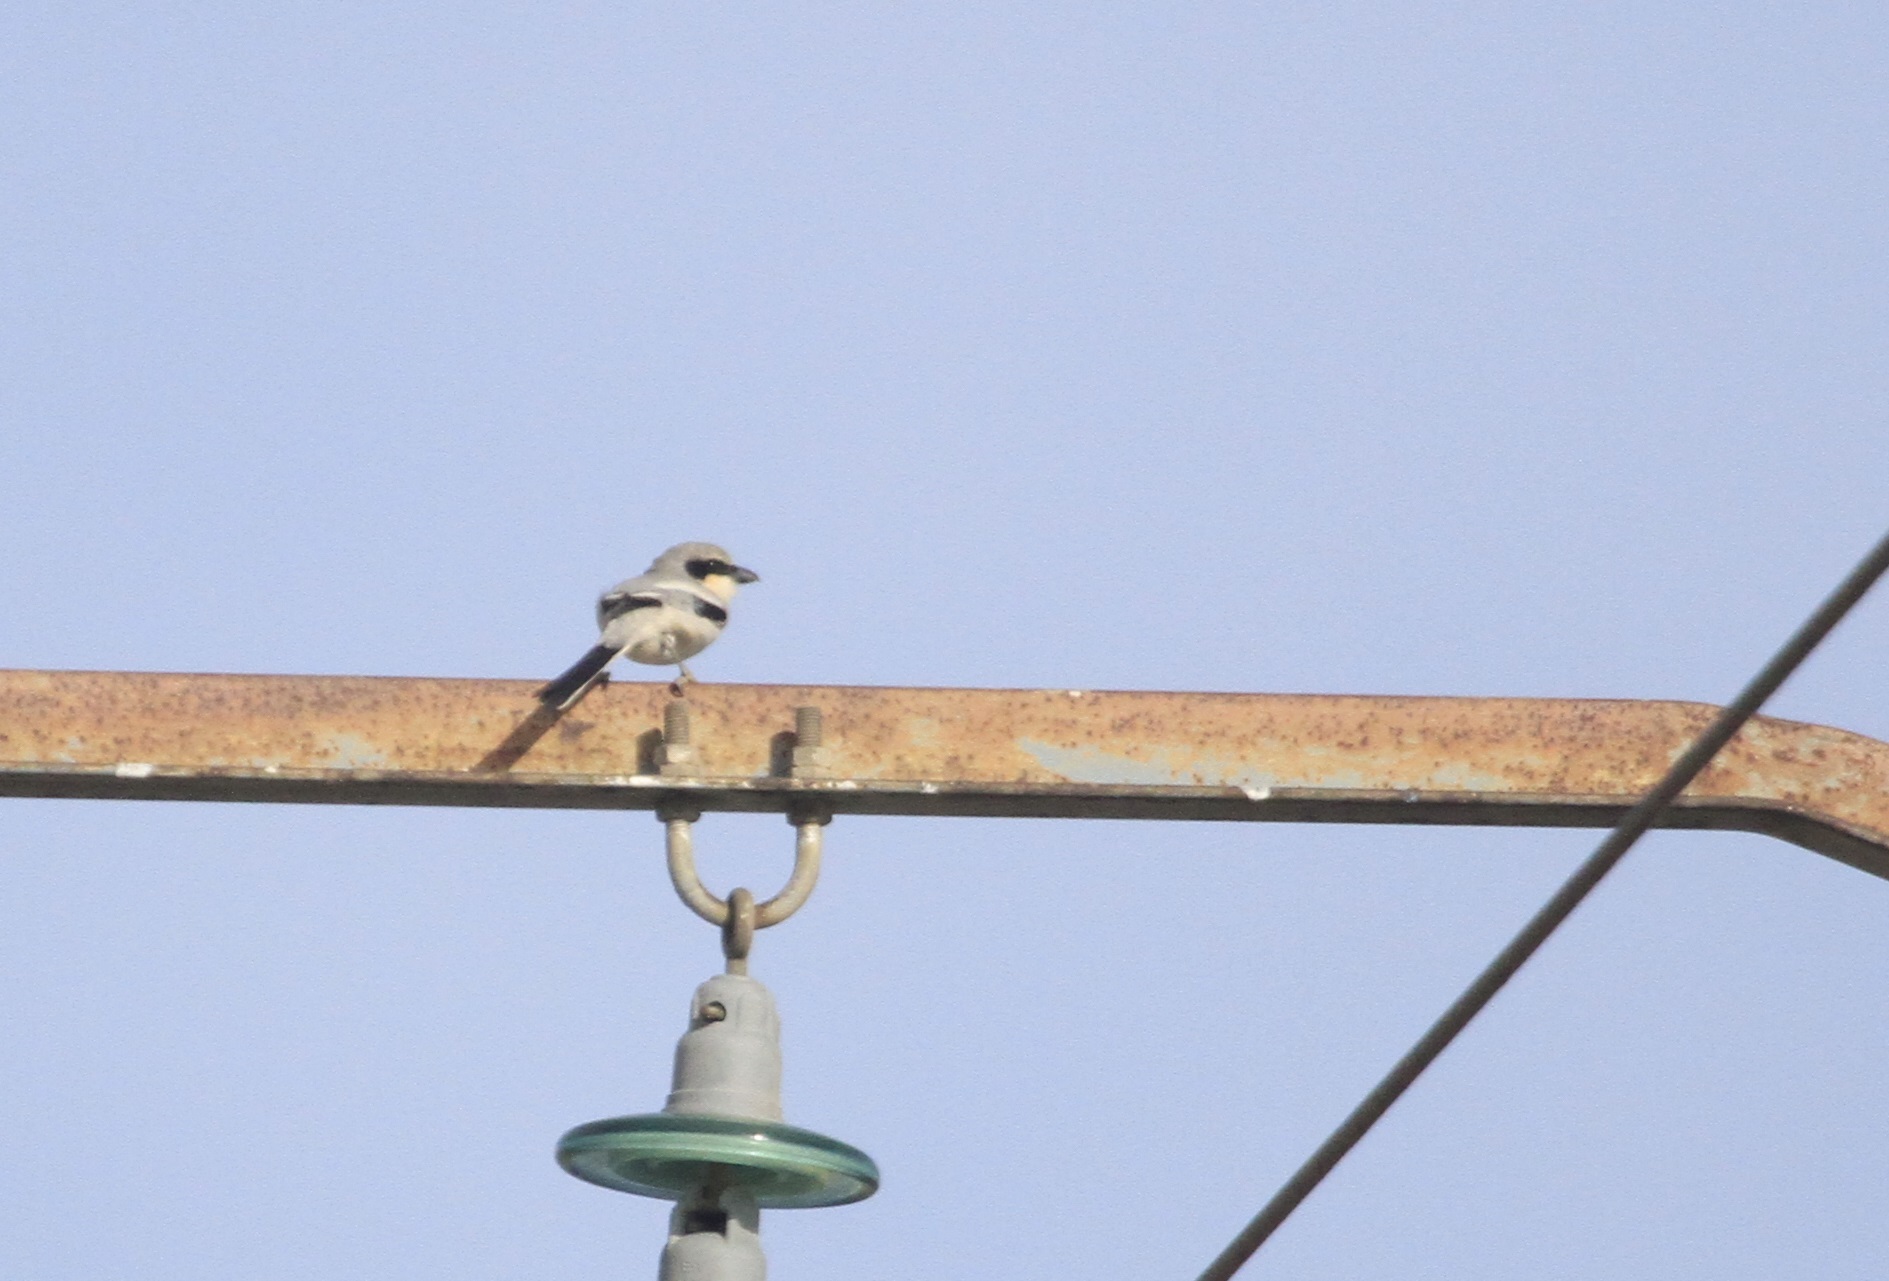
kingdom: Animalia
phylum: Chordata
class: Aves
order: Passeriformes
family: Laniidae
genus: Lanius
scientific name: Lanius excubitor
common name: Great grey shrike
